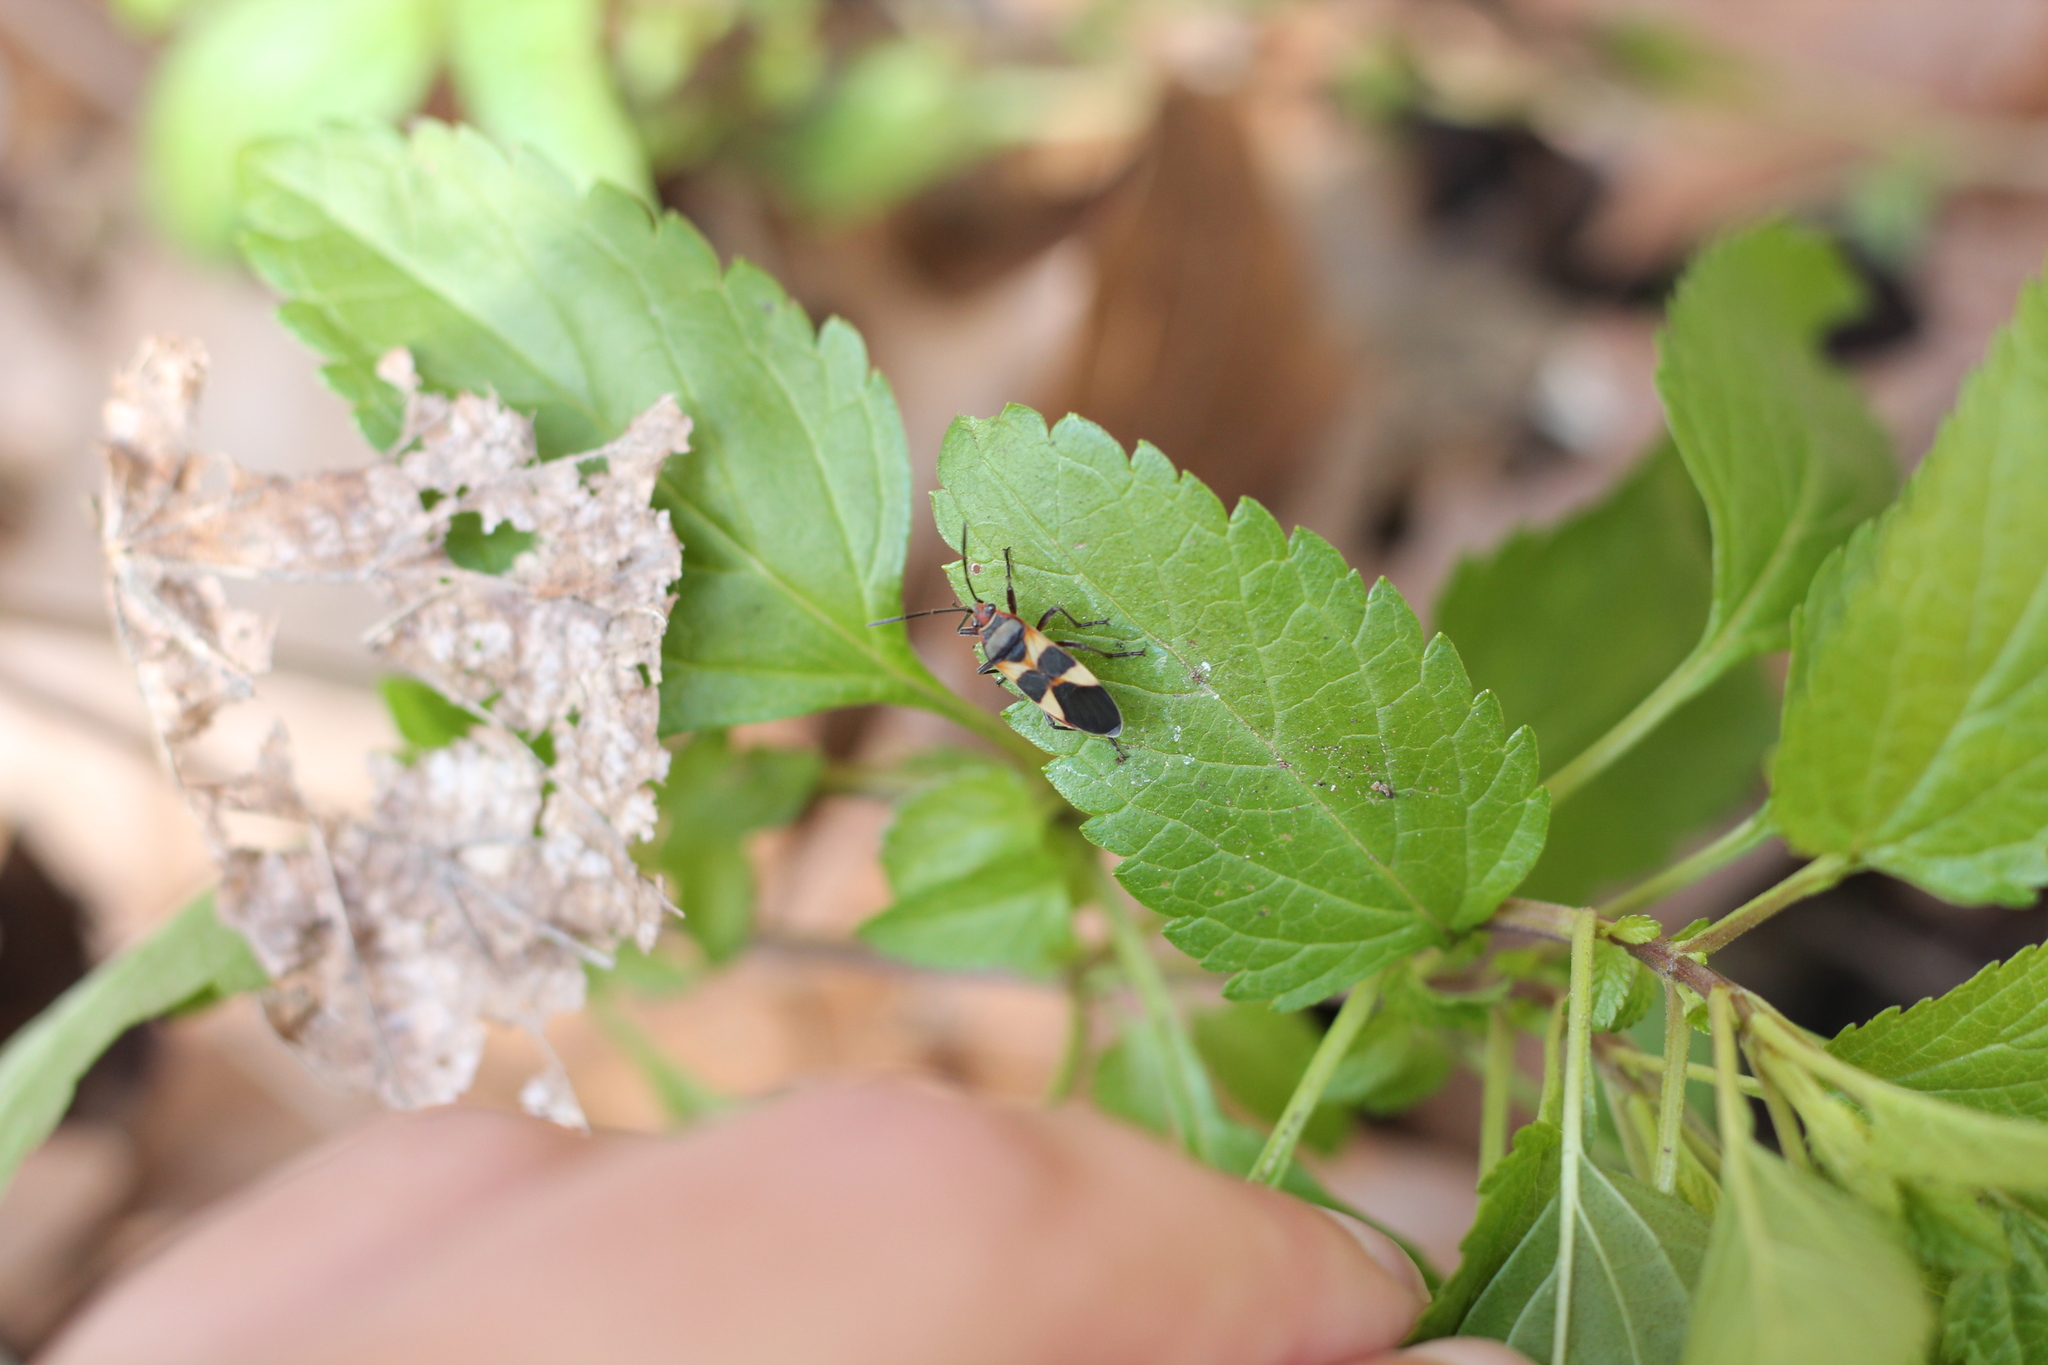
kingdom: Animalia
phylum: Arthropoda
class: Insecta
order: Hemiptera
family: Lygaeidae
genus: Oncopeltus
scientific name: Oncopeltus unifasciatellus
